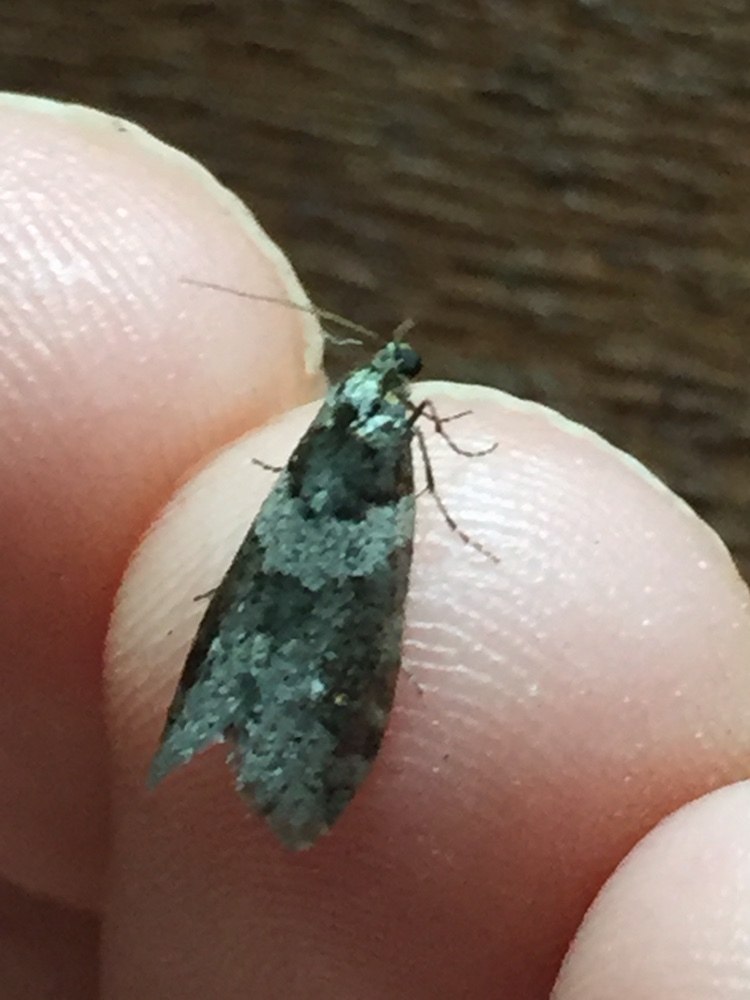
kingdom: Animalia
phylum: Arthropoda
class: Insecta
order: Lepidoptera
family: Psychidae
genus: Lepidoscia
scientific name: Lepidoscia heliochares
